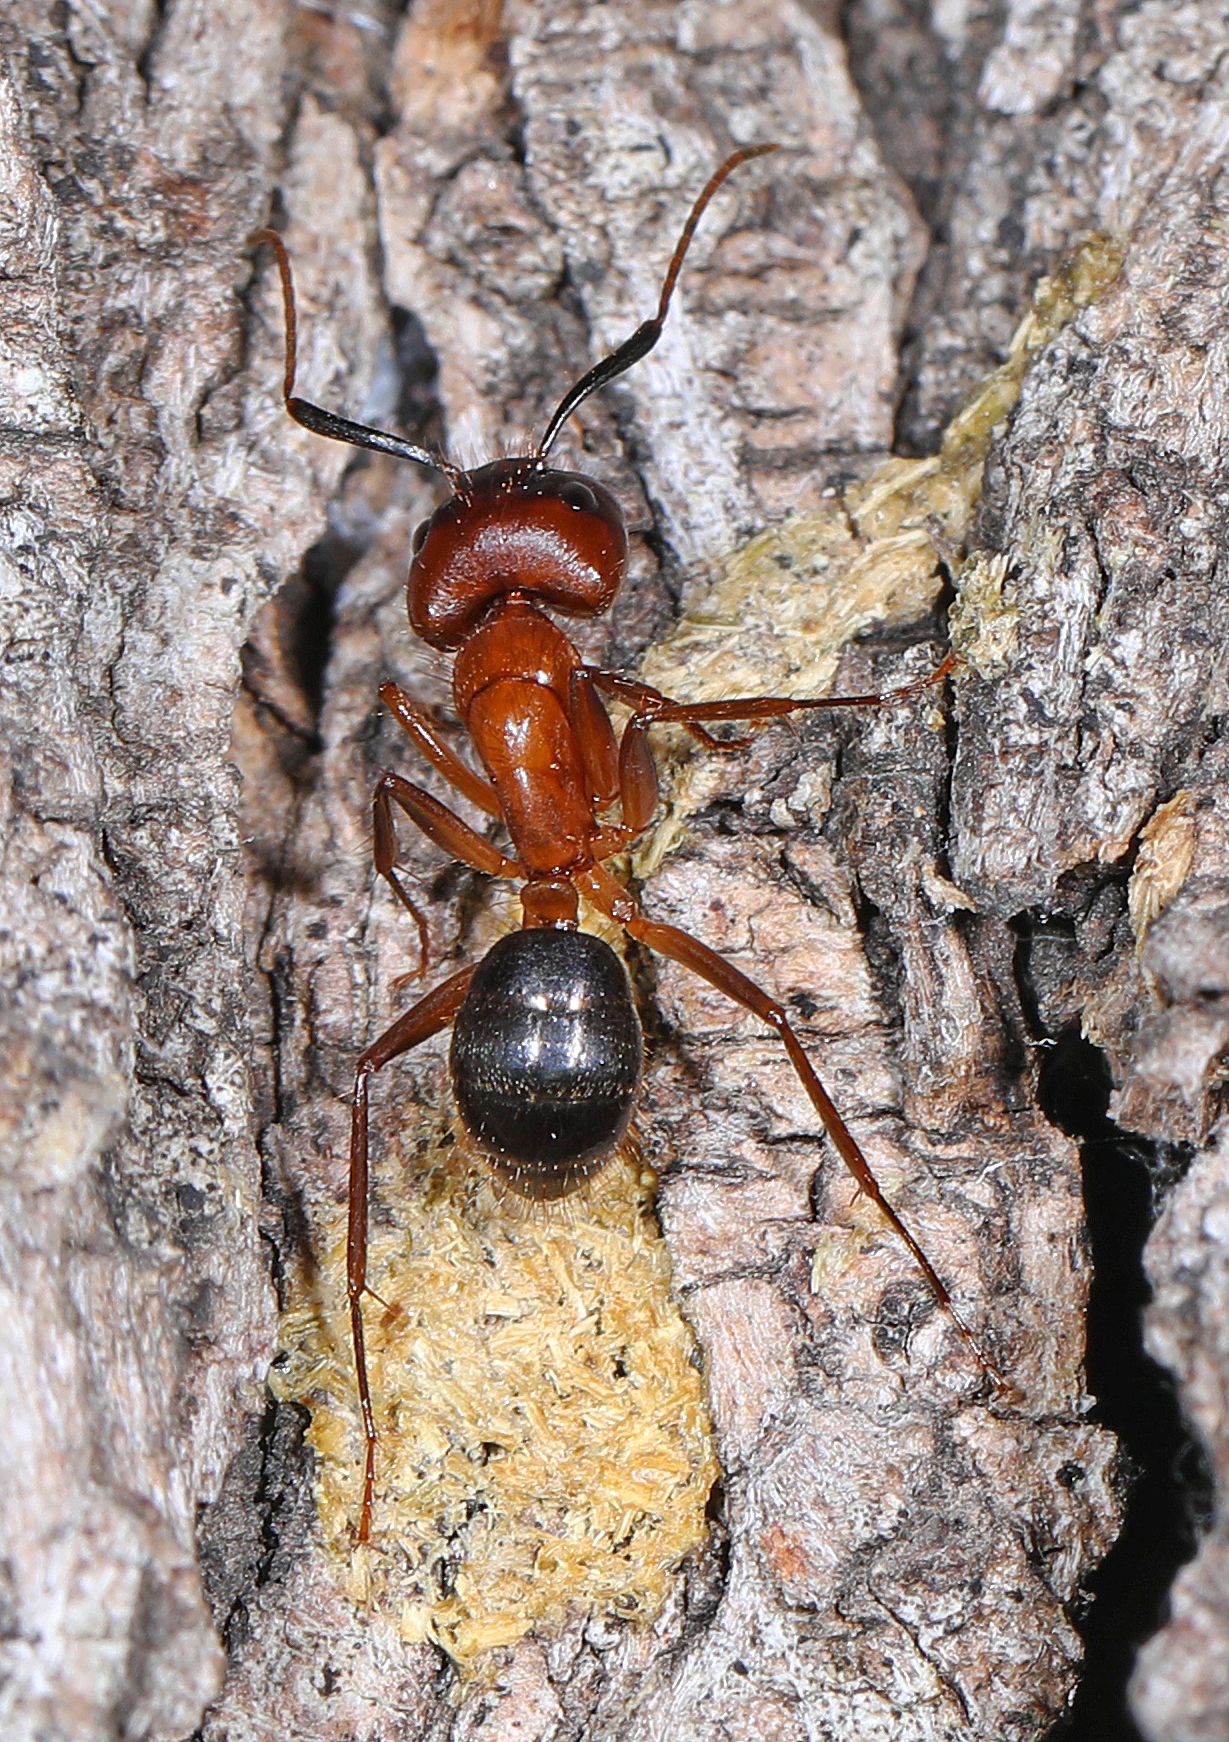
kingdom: Animalia
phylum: Arthropoda
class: Insecta
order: Hymenoptera
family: Formicidae
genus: Camponotus
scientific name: Camponotus atriceps
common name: Florida carpenter ant
